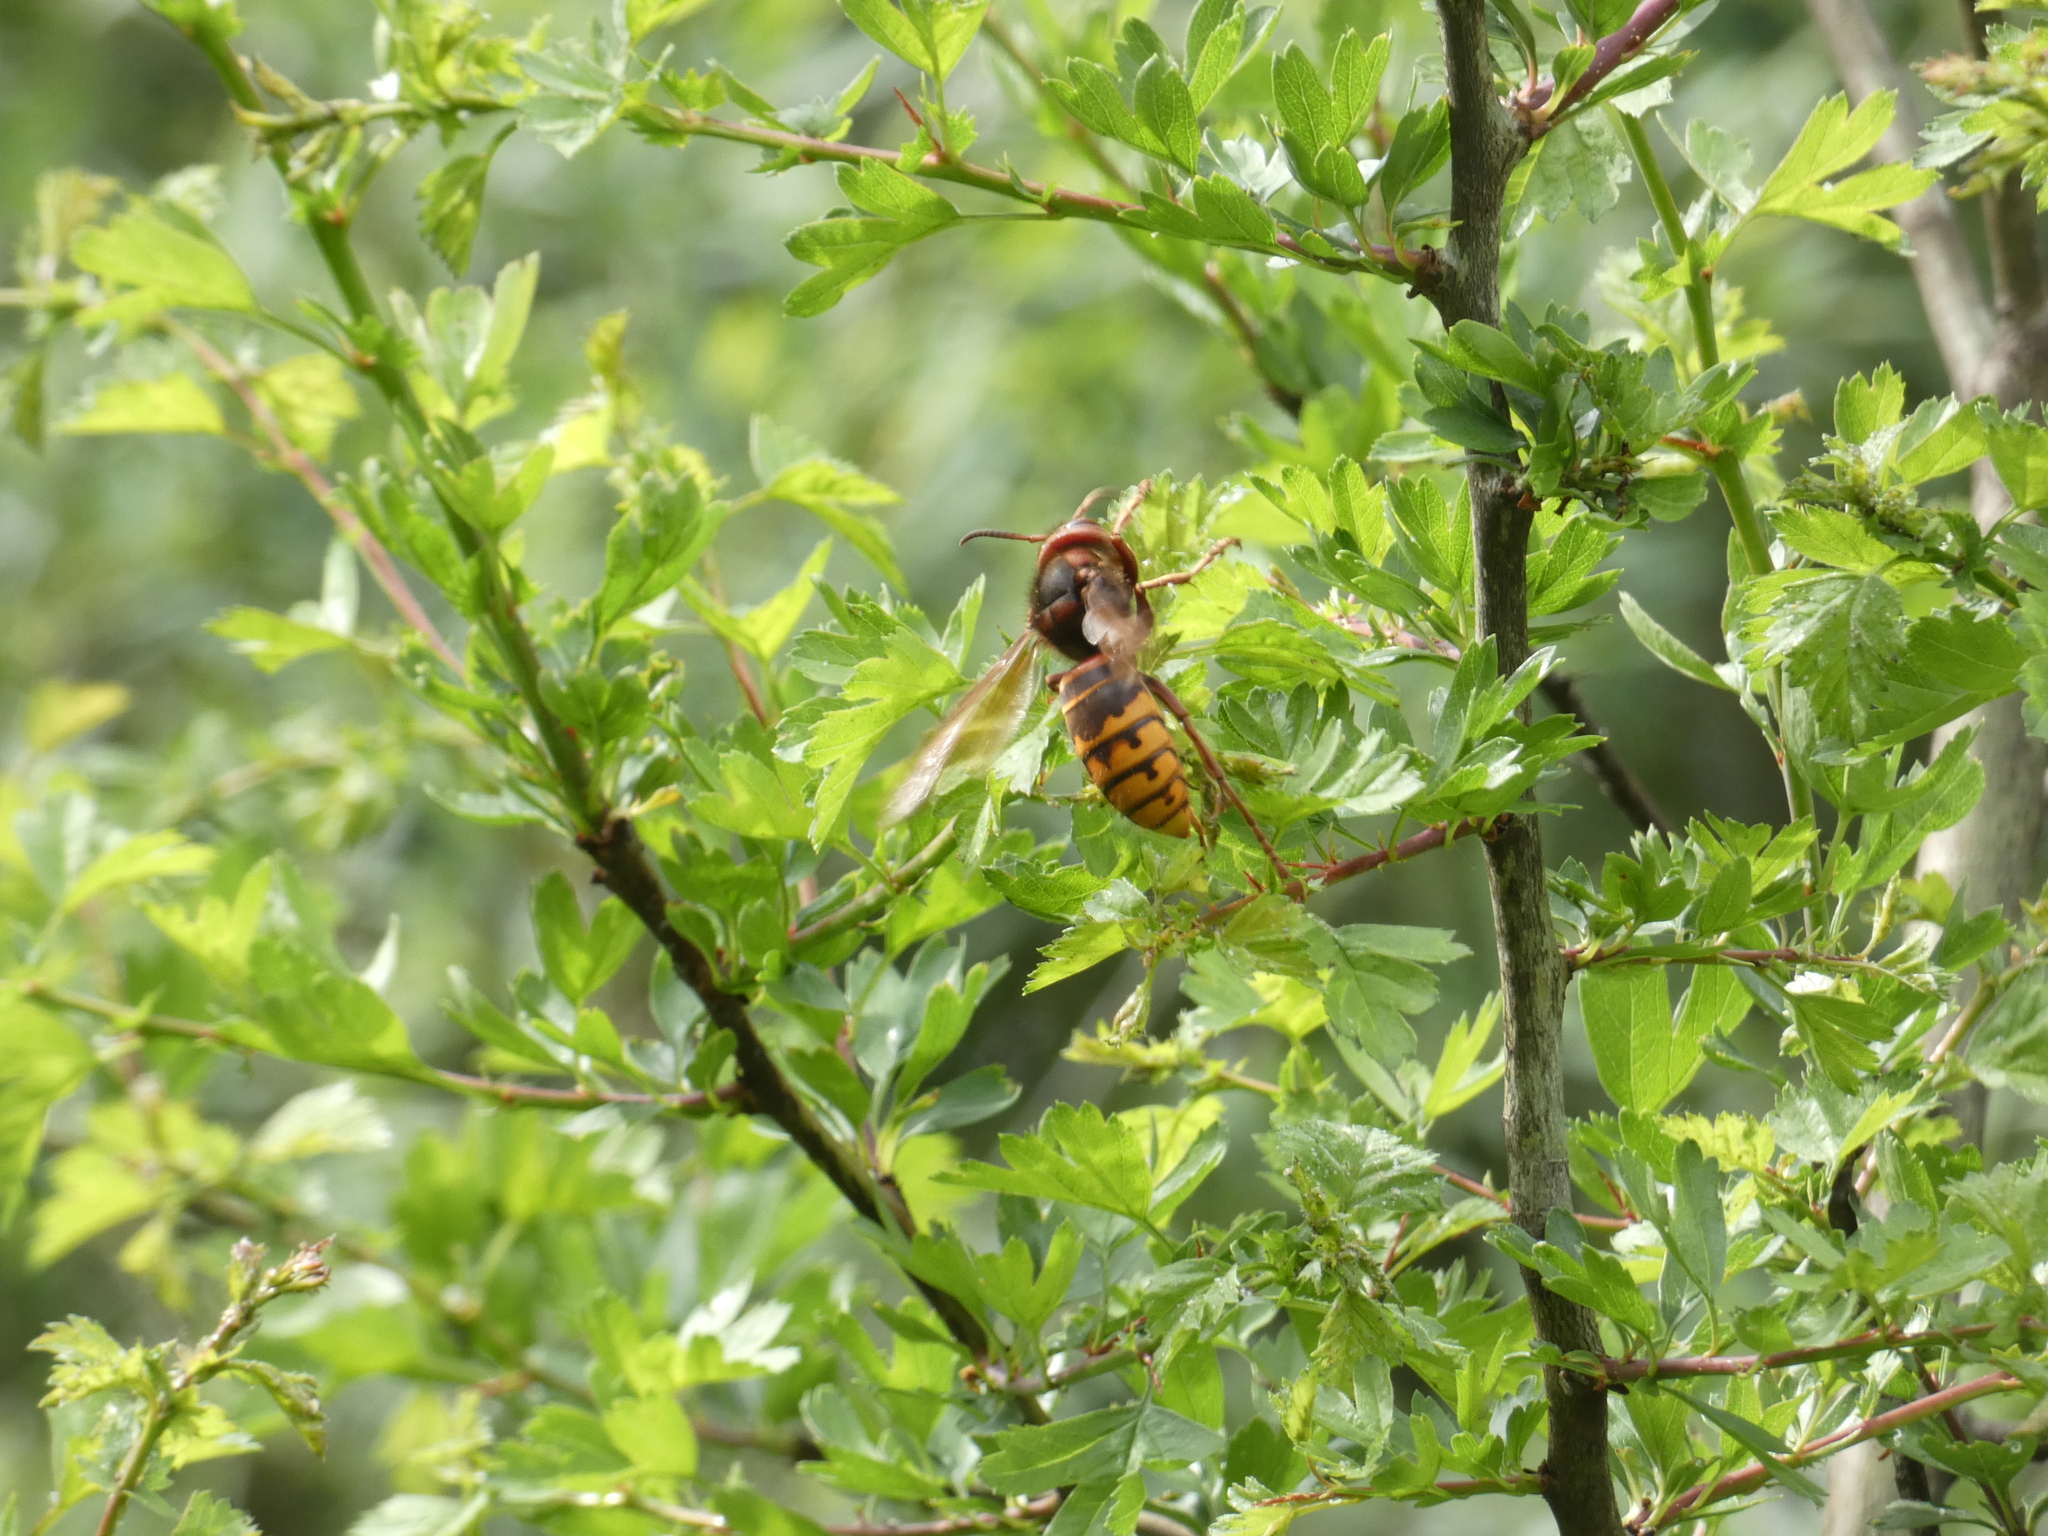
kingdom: Animalia
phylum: Arthropoda
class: Insecta
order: Hymenoptera
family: Vespidae
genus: Vespa
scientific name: Vespa crabro
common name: Hornet
